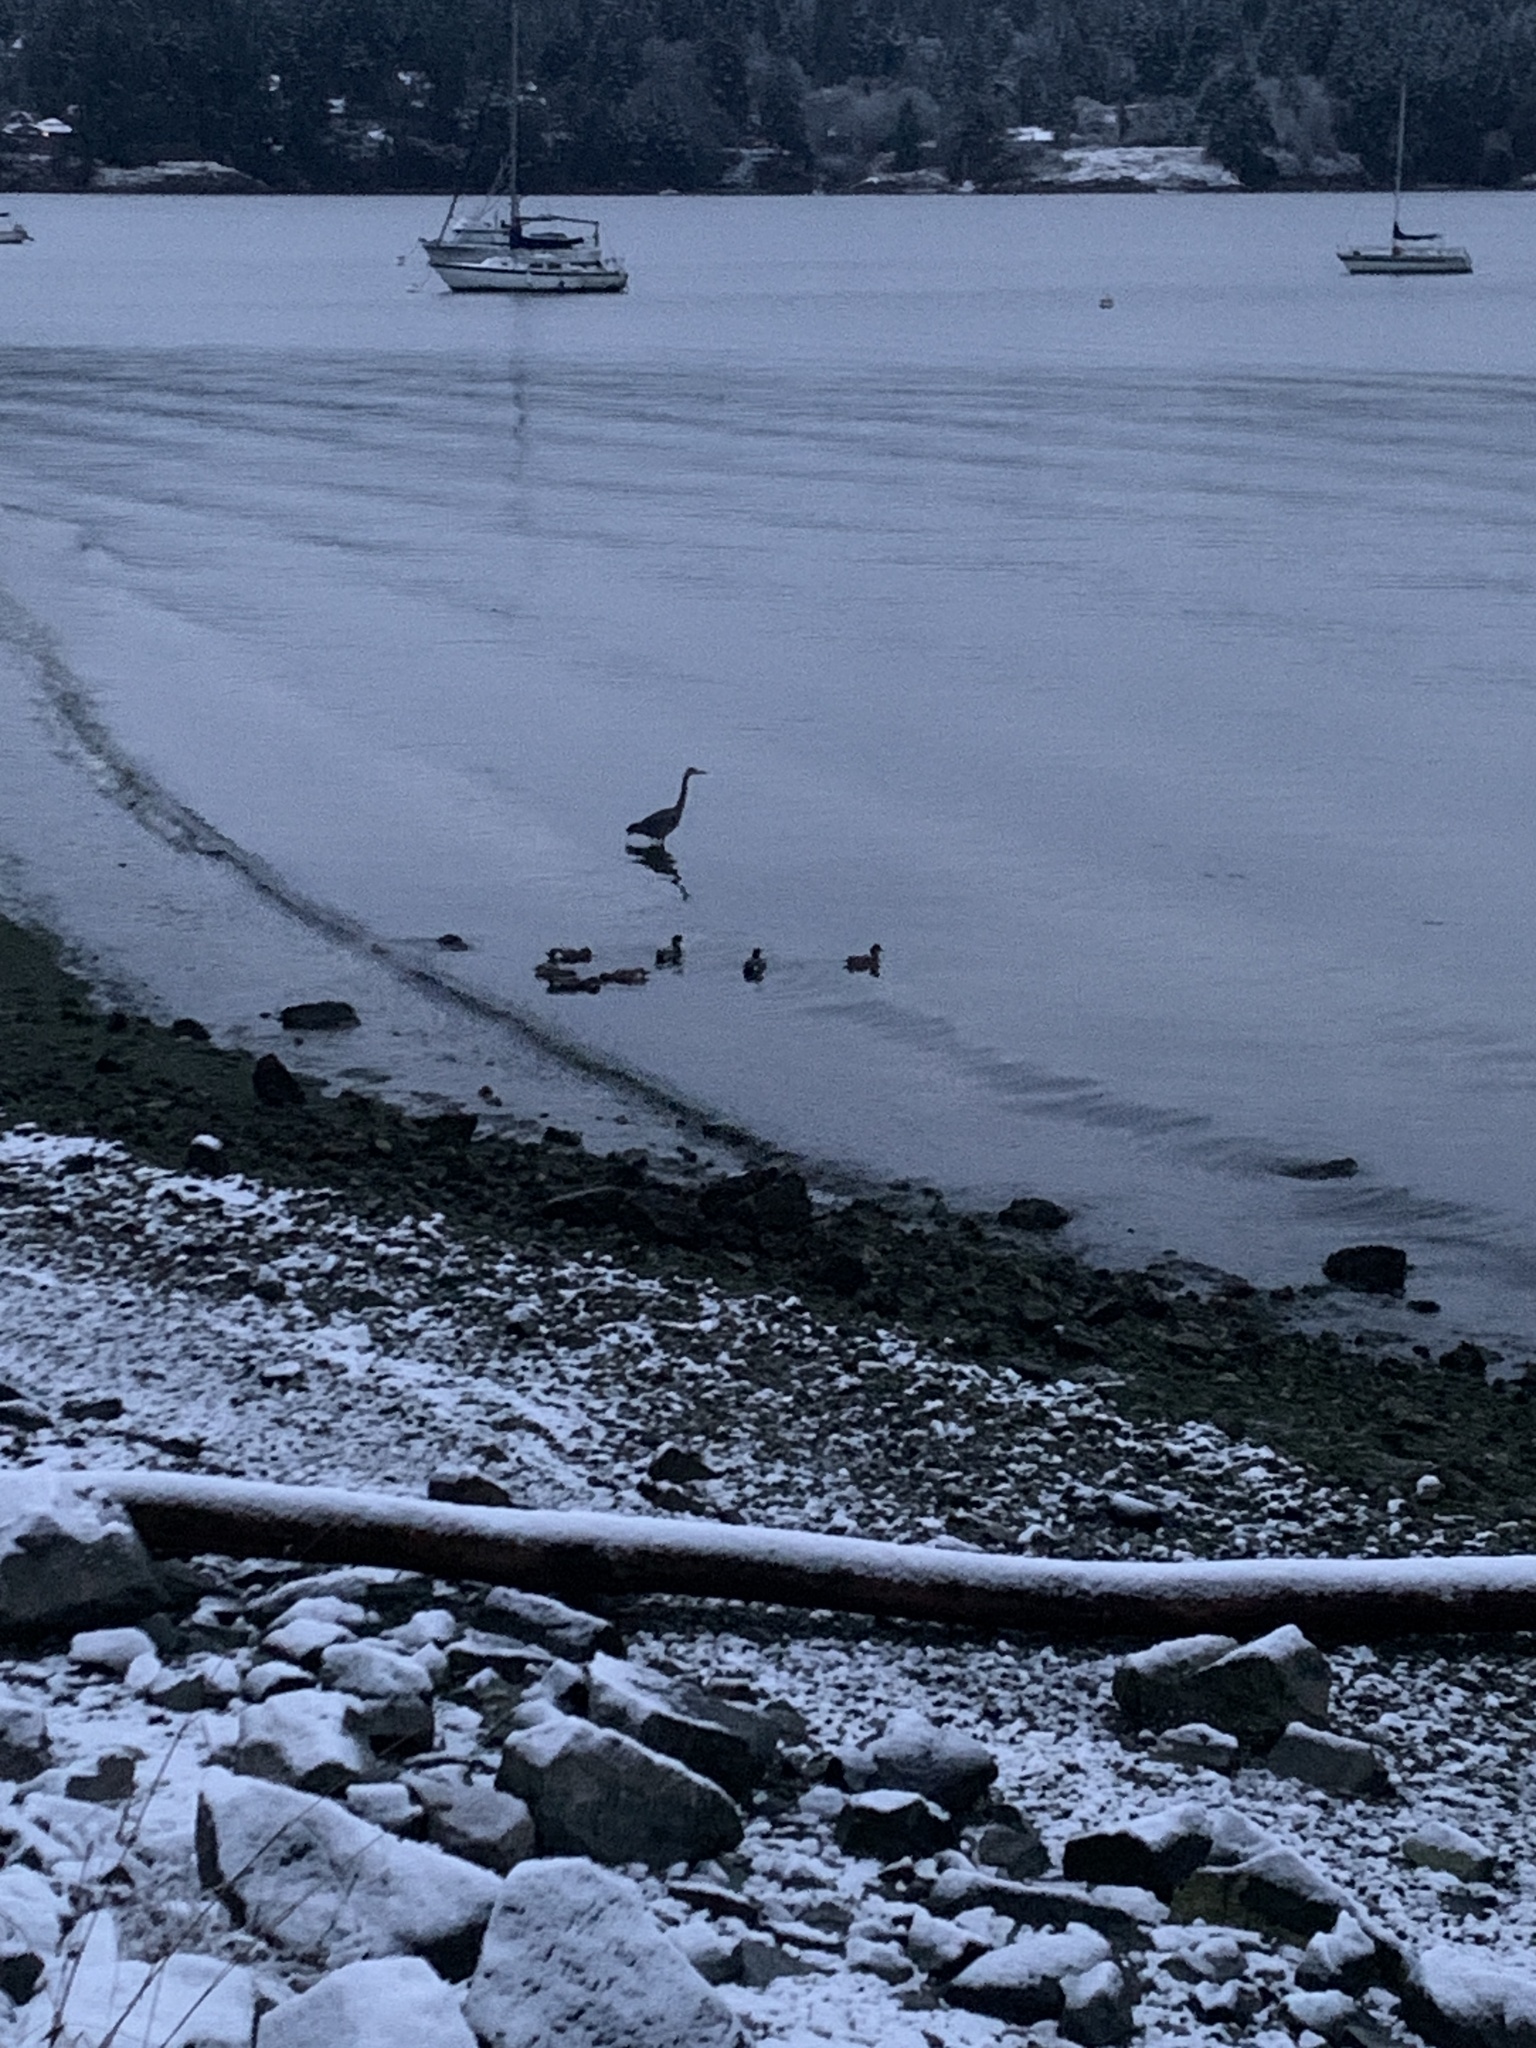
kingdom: Animalia
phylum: Chordata
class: Aves
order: Pelecaniformes
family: Ardeidae
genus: Ardea
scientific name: Ardea herodias
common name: Great blue heron
